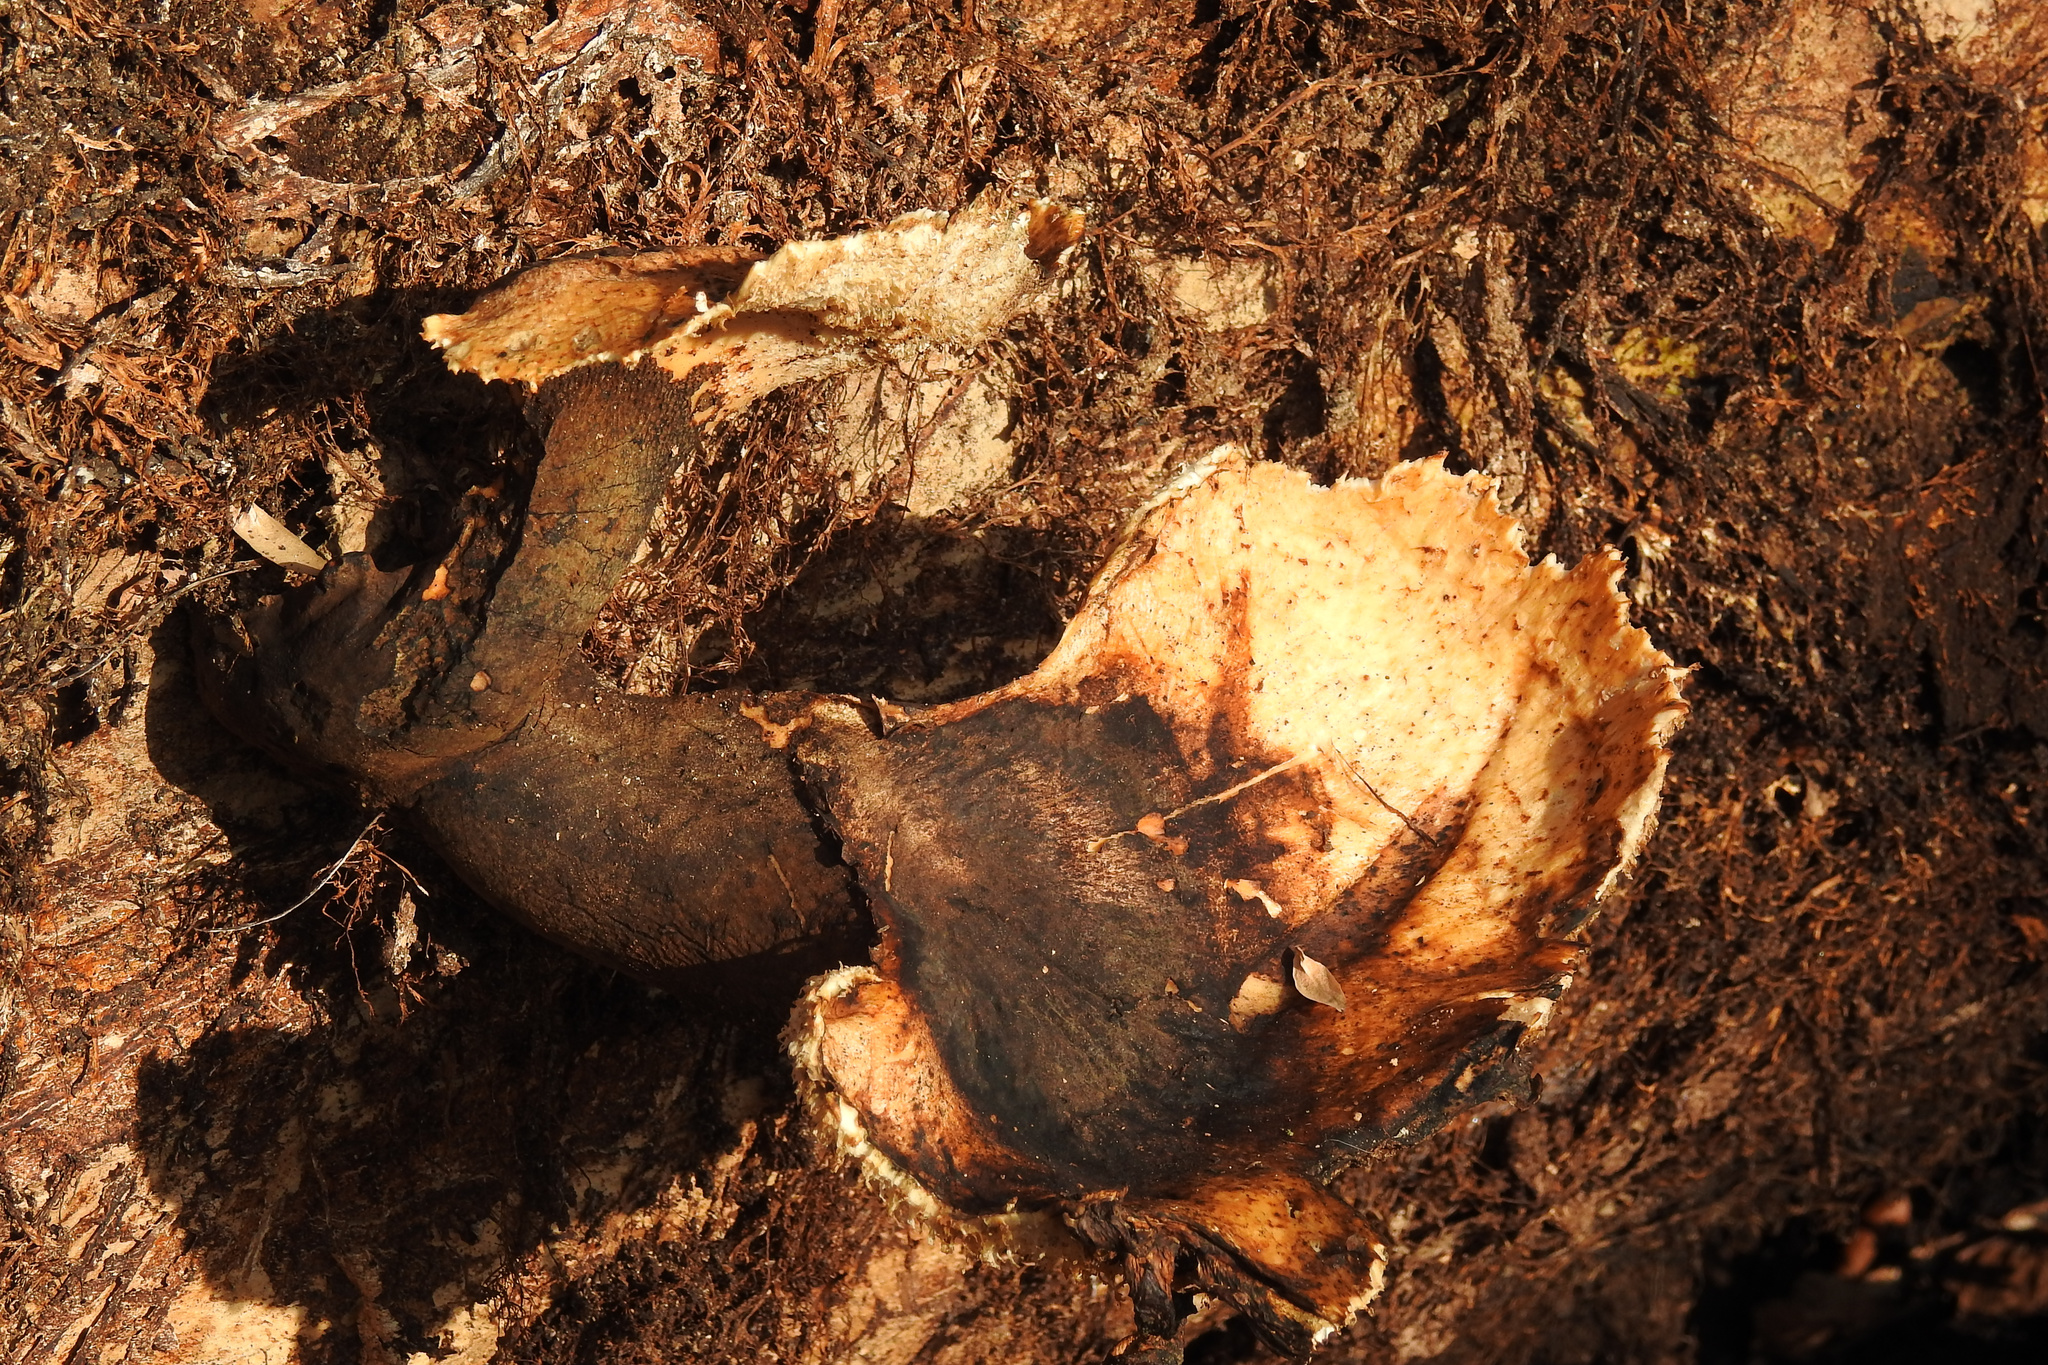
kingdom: Fungi
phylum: Basidiomycota
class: Agaricomycetes
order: Polyporales
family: Polyporaceae
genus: Cerioporus
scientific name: Cerioporus squamosus
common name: Dryad's saddle
